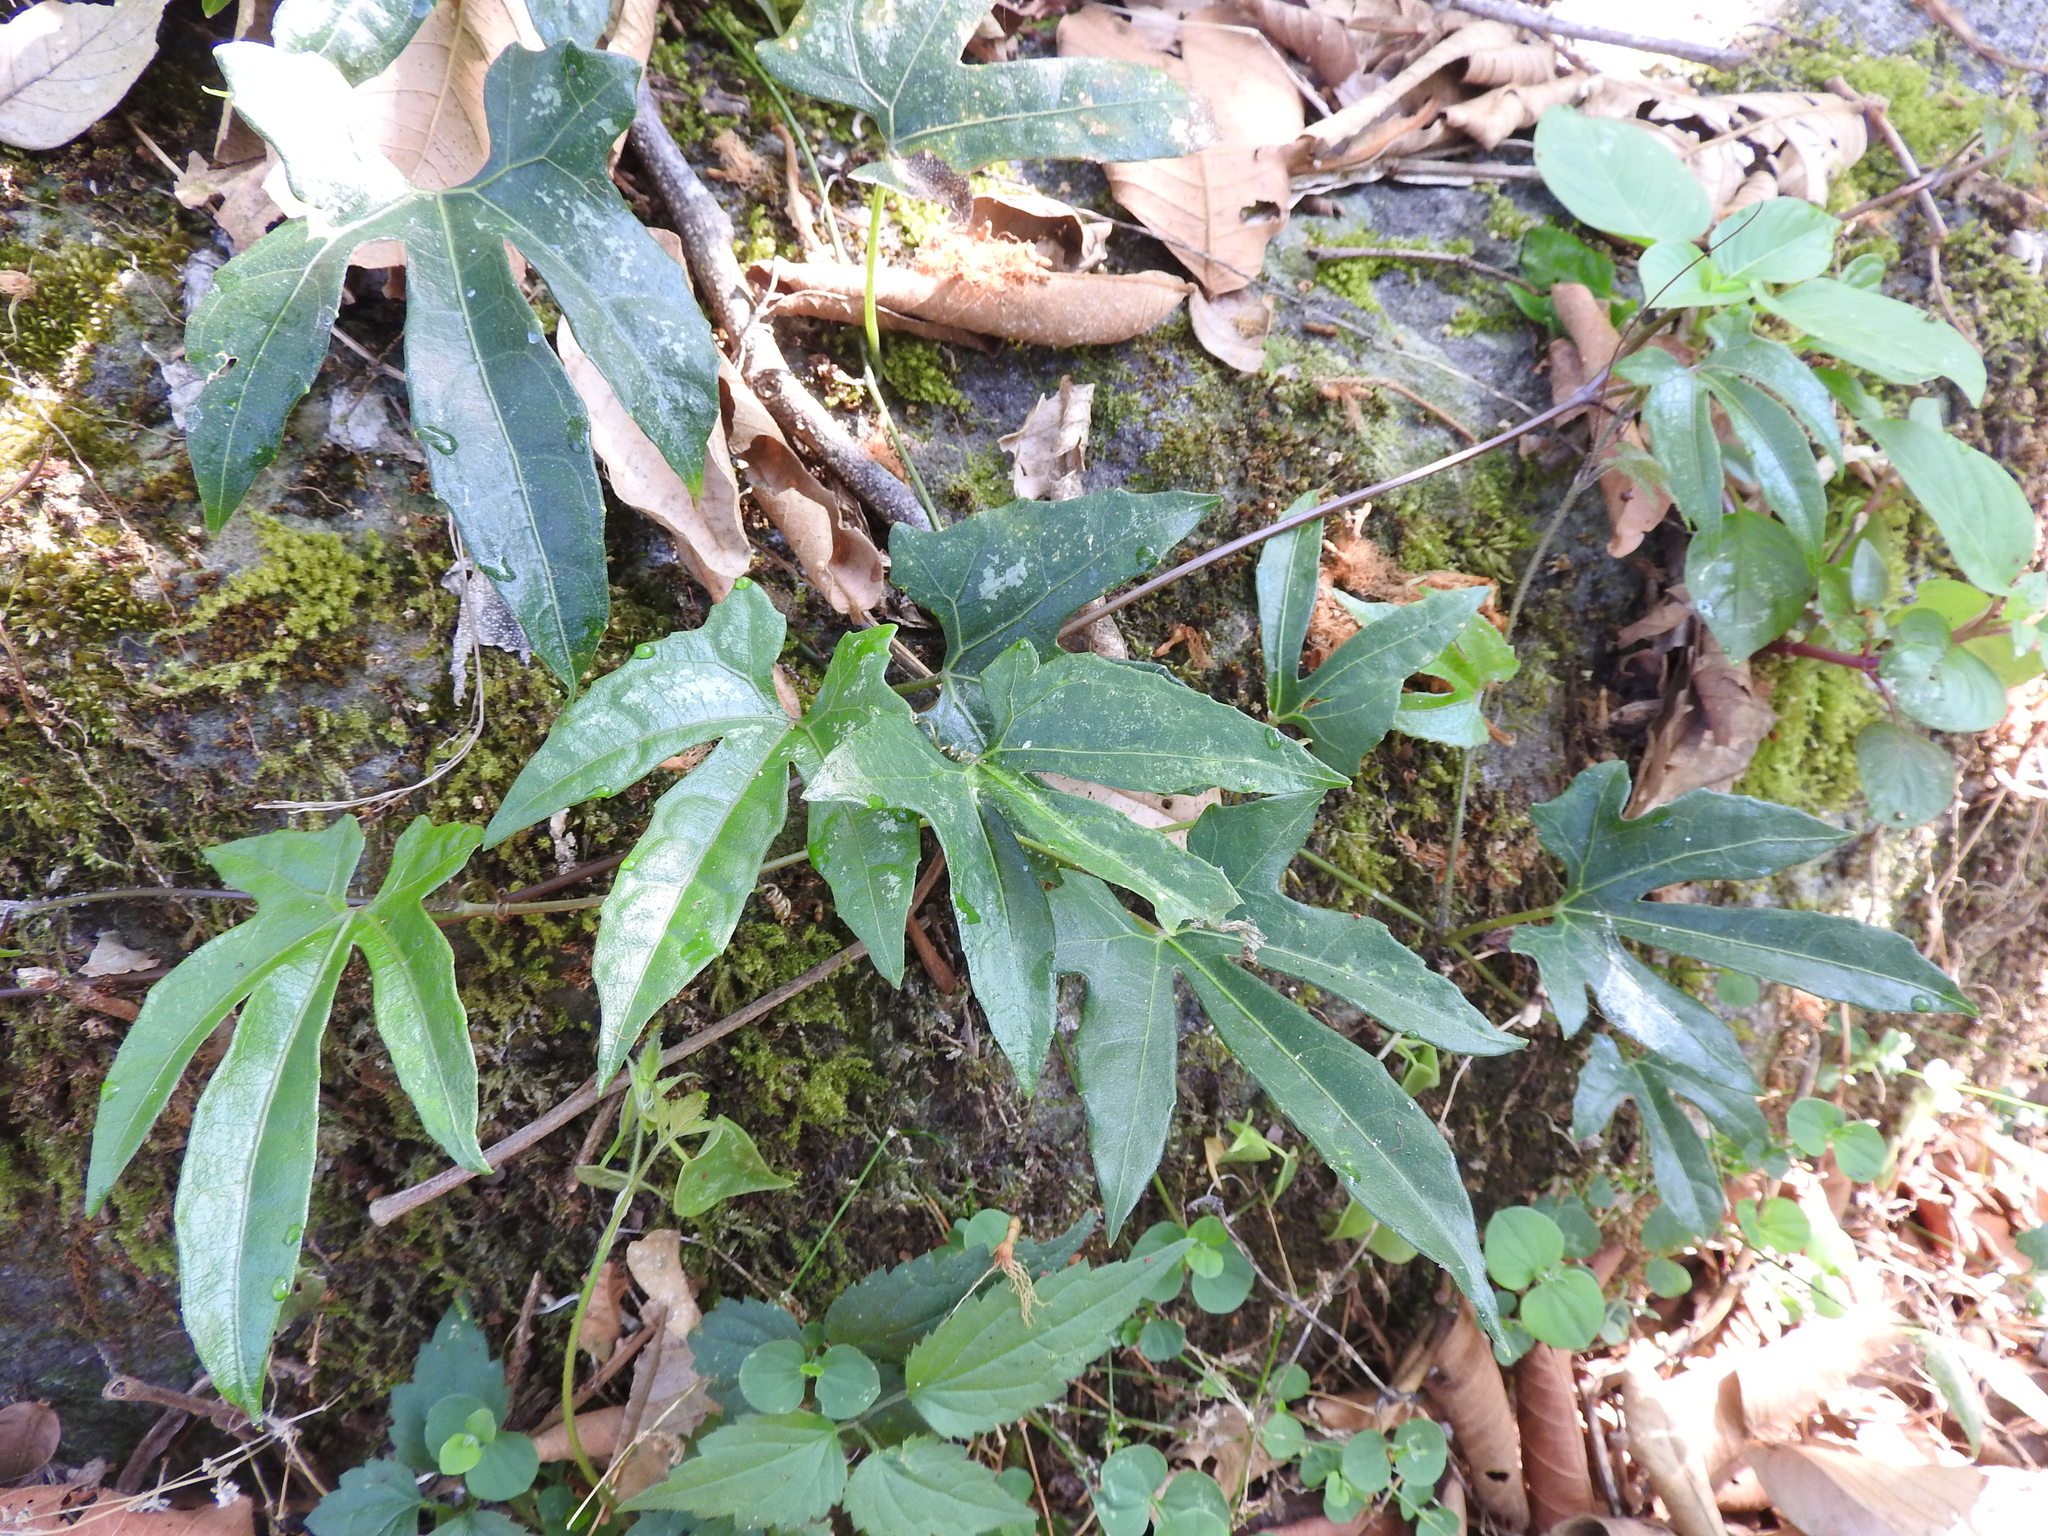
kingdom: Plantae
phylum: Tracheophyta
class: Magnoliopsida
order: Cucurbitales
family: Cucurbitaceae
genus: Cayaponia
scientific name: Cayaponia longiloba
